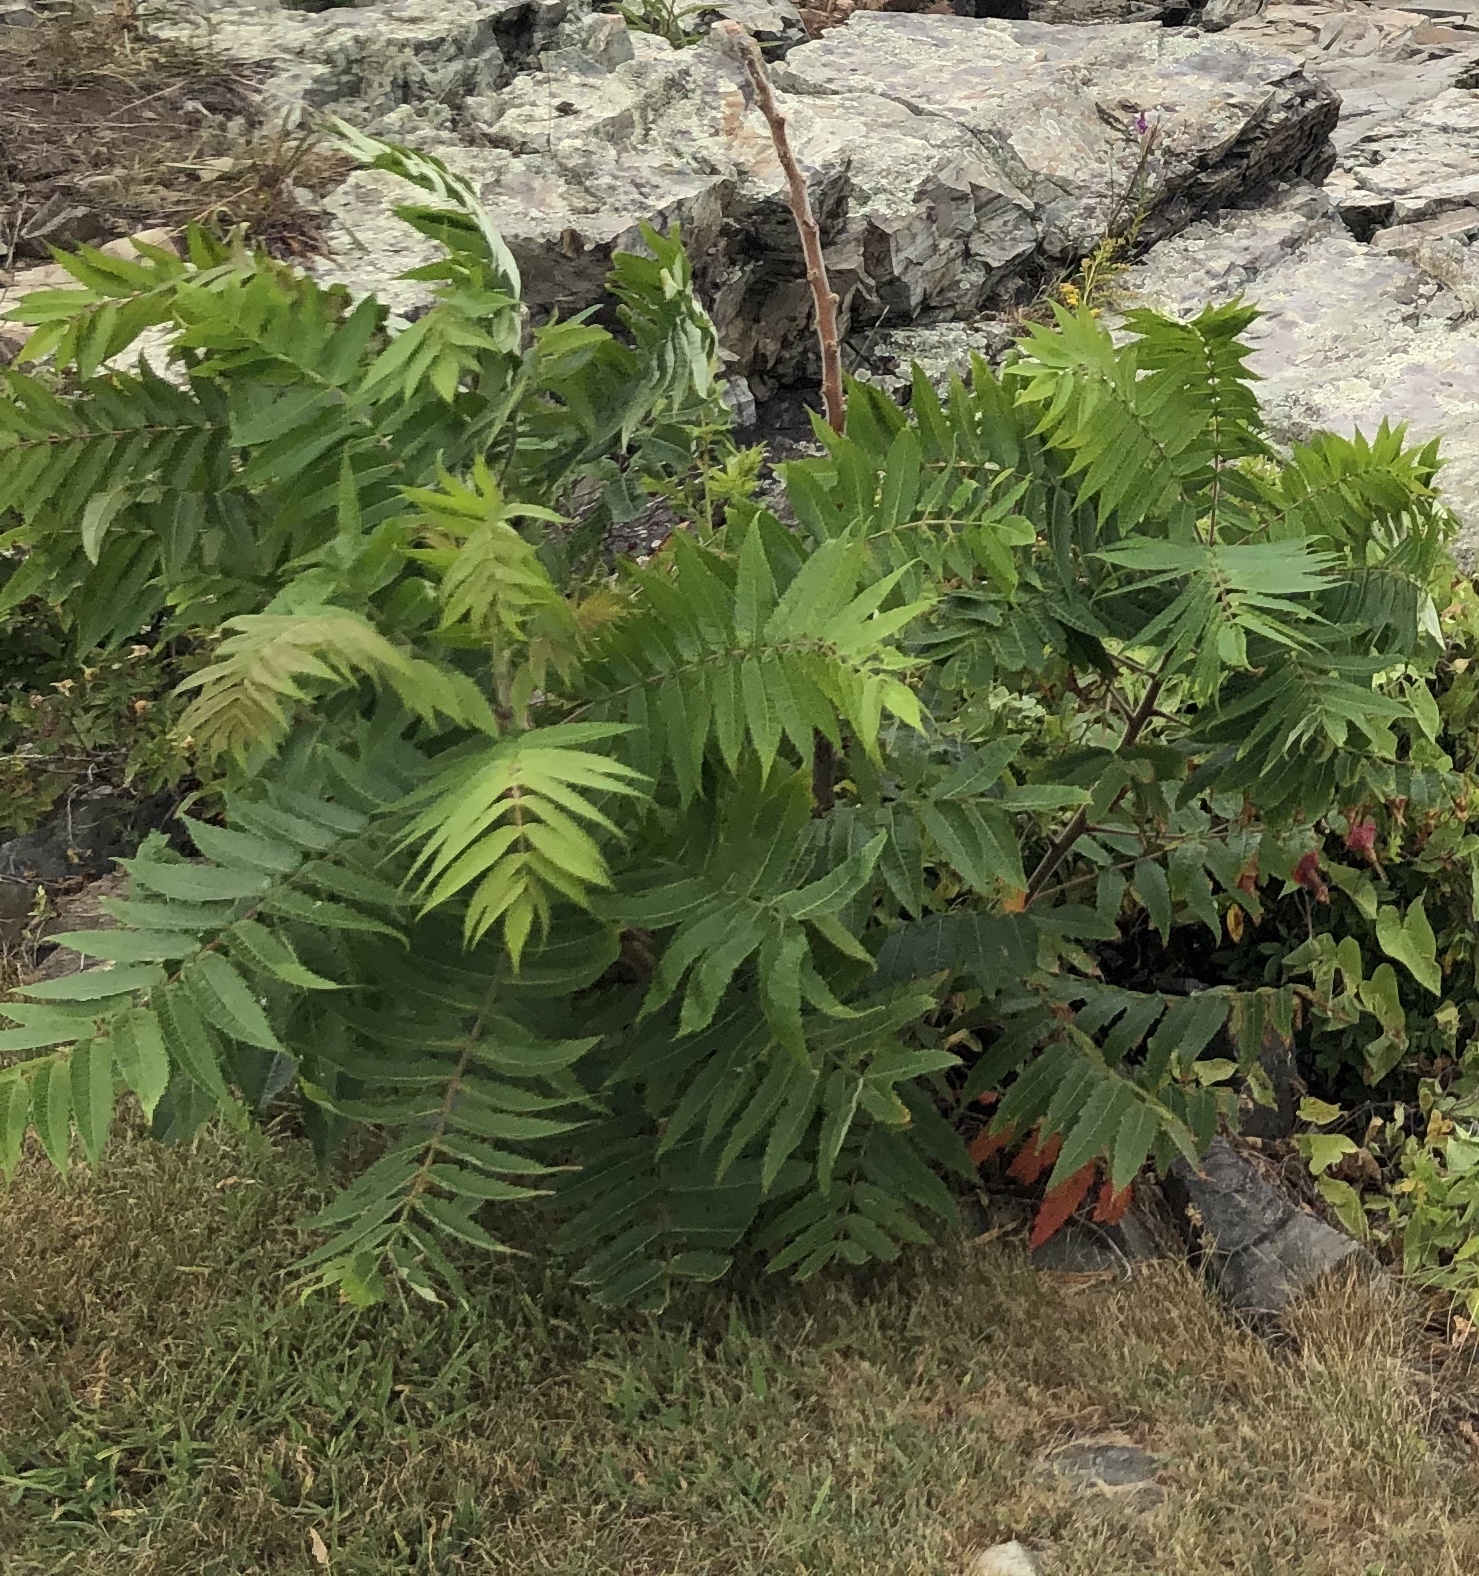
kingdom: Plantae
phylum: Tracheophyta
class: Magnoliopsida
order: Sapindales
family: Anacardiaceae
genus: Rhus
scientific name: Rhus typhina
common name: Staghorn sumac
